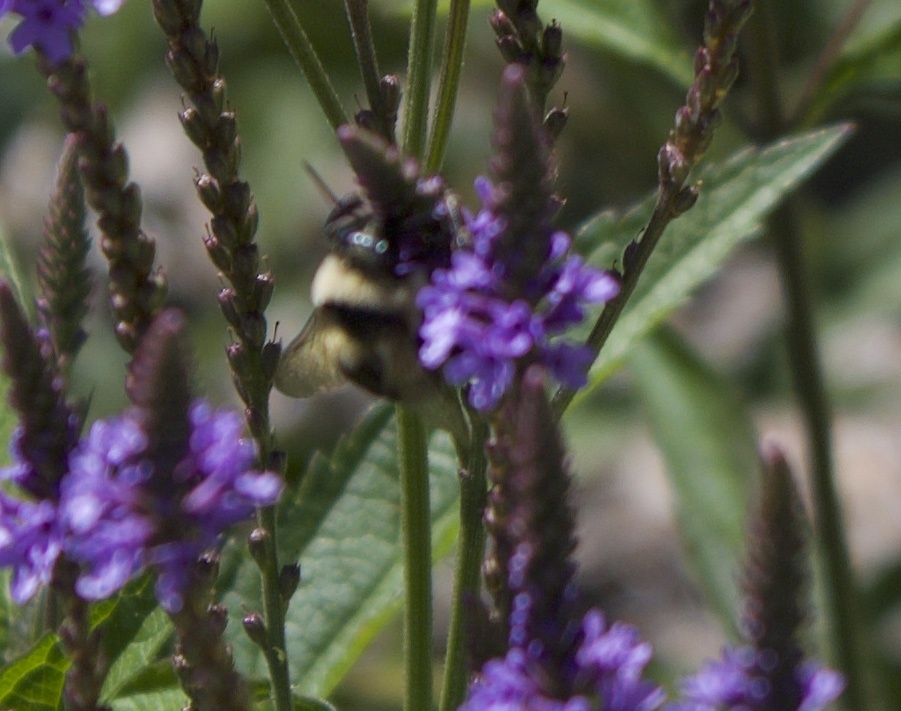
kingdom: Animalia
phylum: Arthropoda
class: Insecta
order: Hymenoptera
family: Apidae
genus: Bombus
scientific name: Bombus rufocinctus
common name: Red-belted bumble bee
